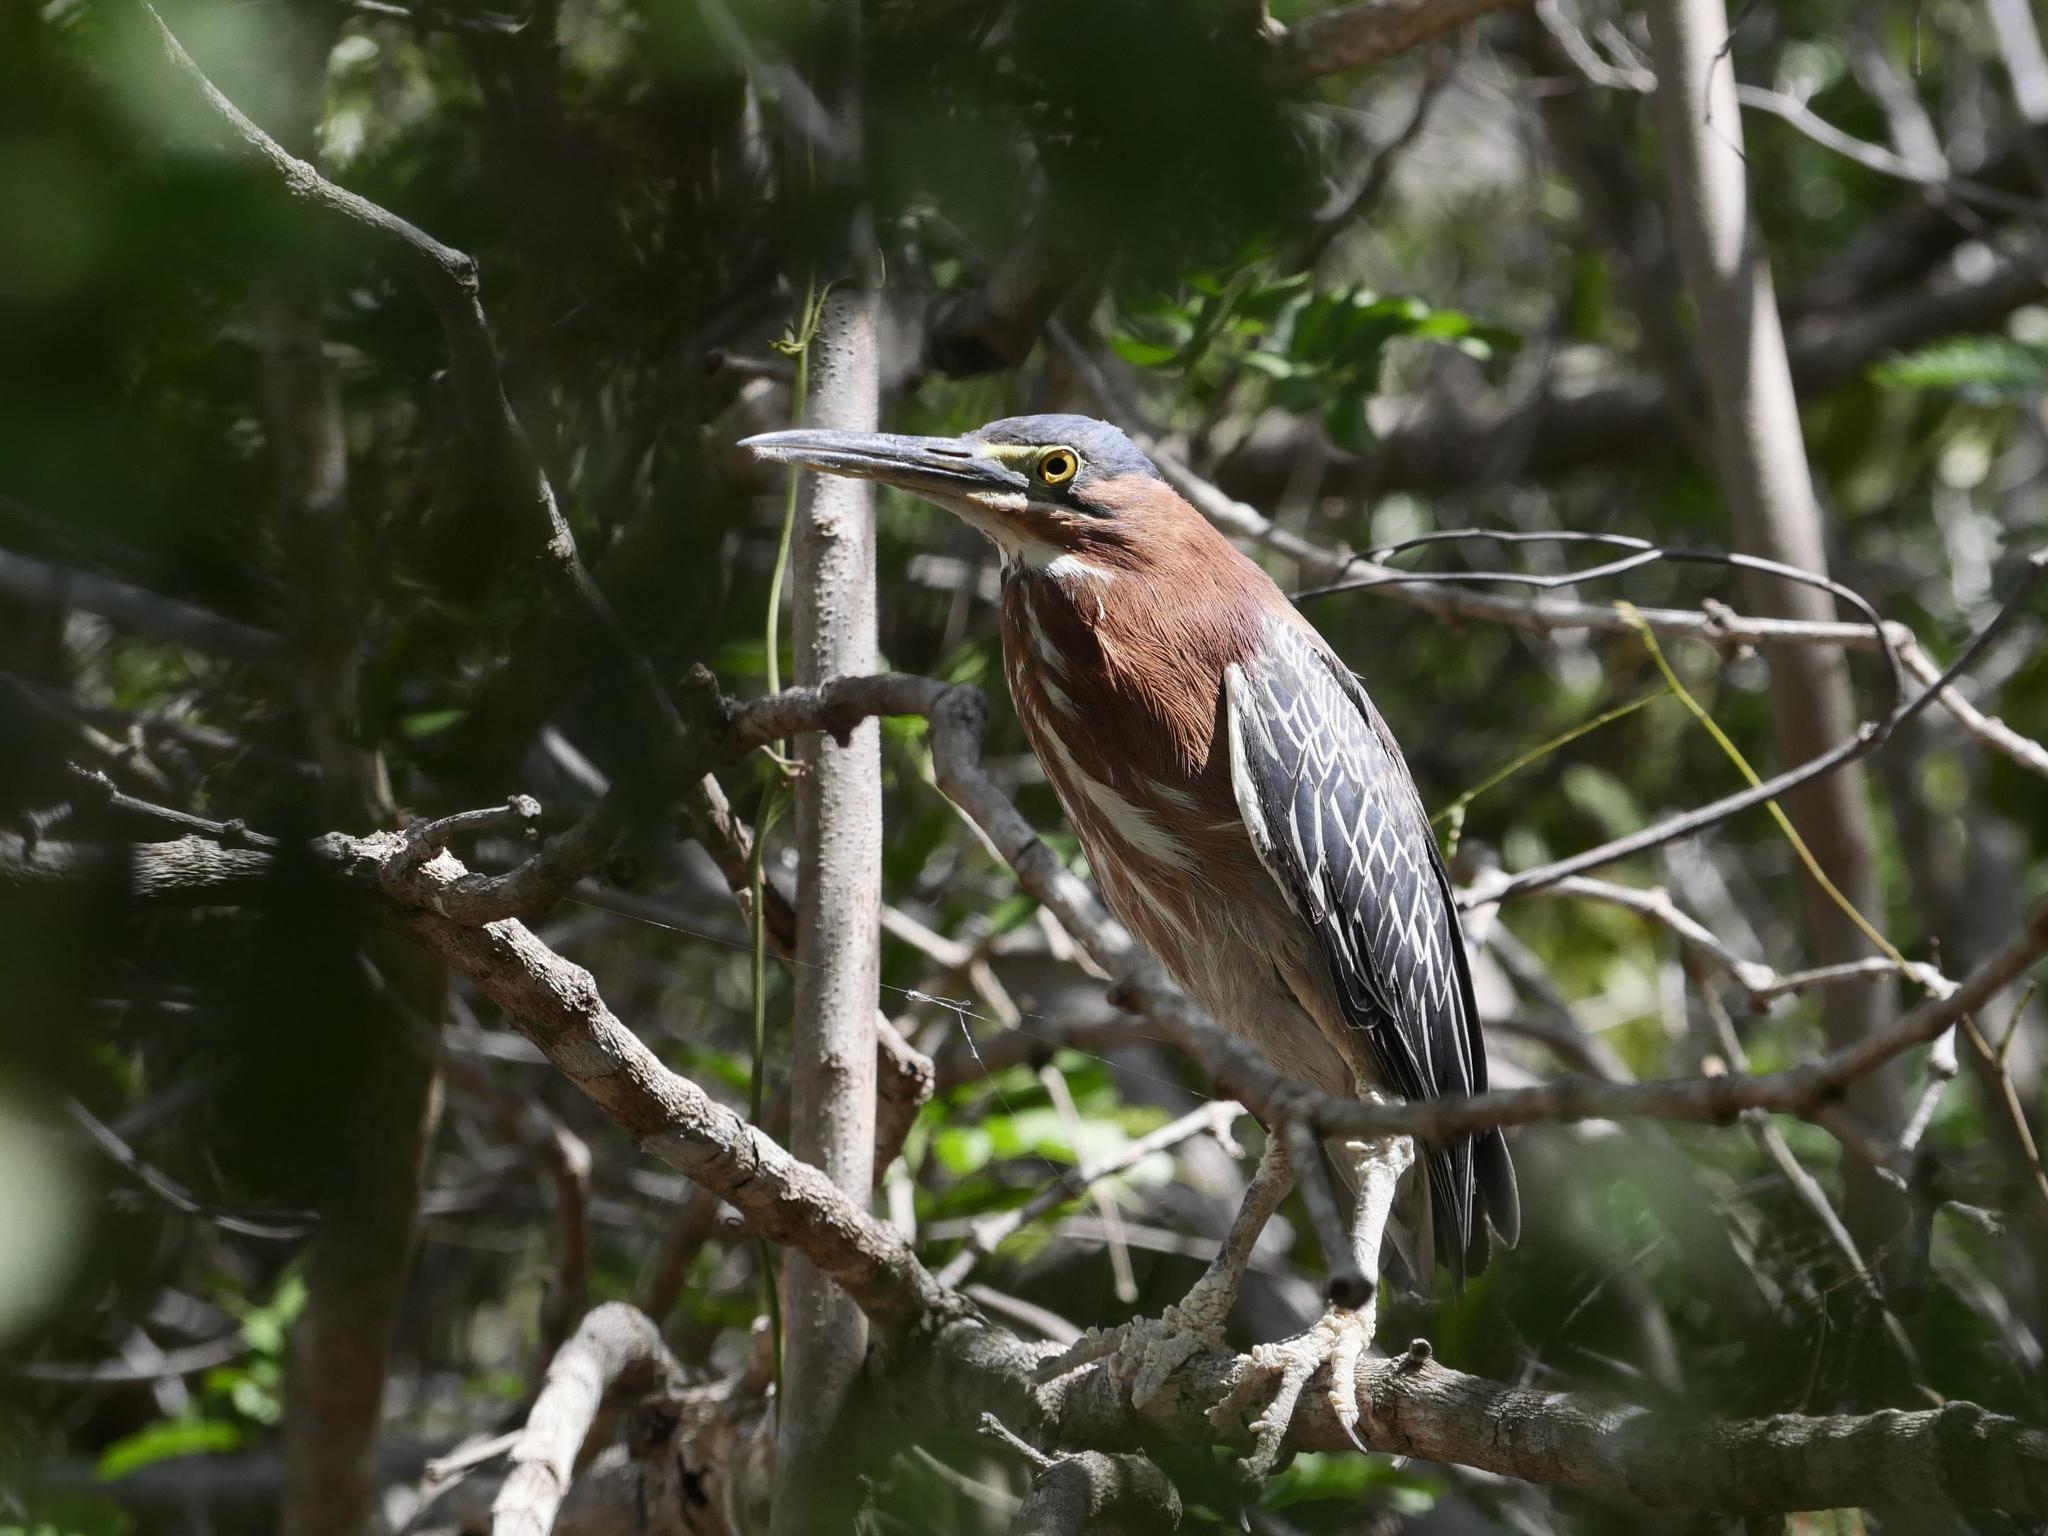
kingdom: Animalia
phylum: Chordata
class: Aves
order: Pelecaniformes
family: Ardeidae
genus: Butorides
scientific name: Butorides virescens
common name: Green heron
